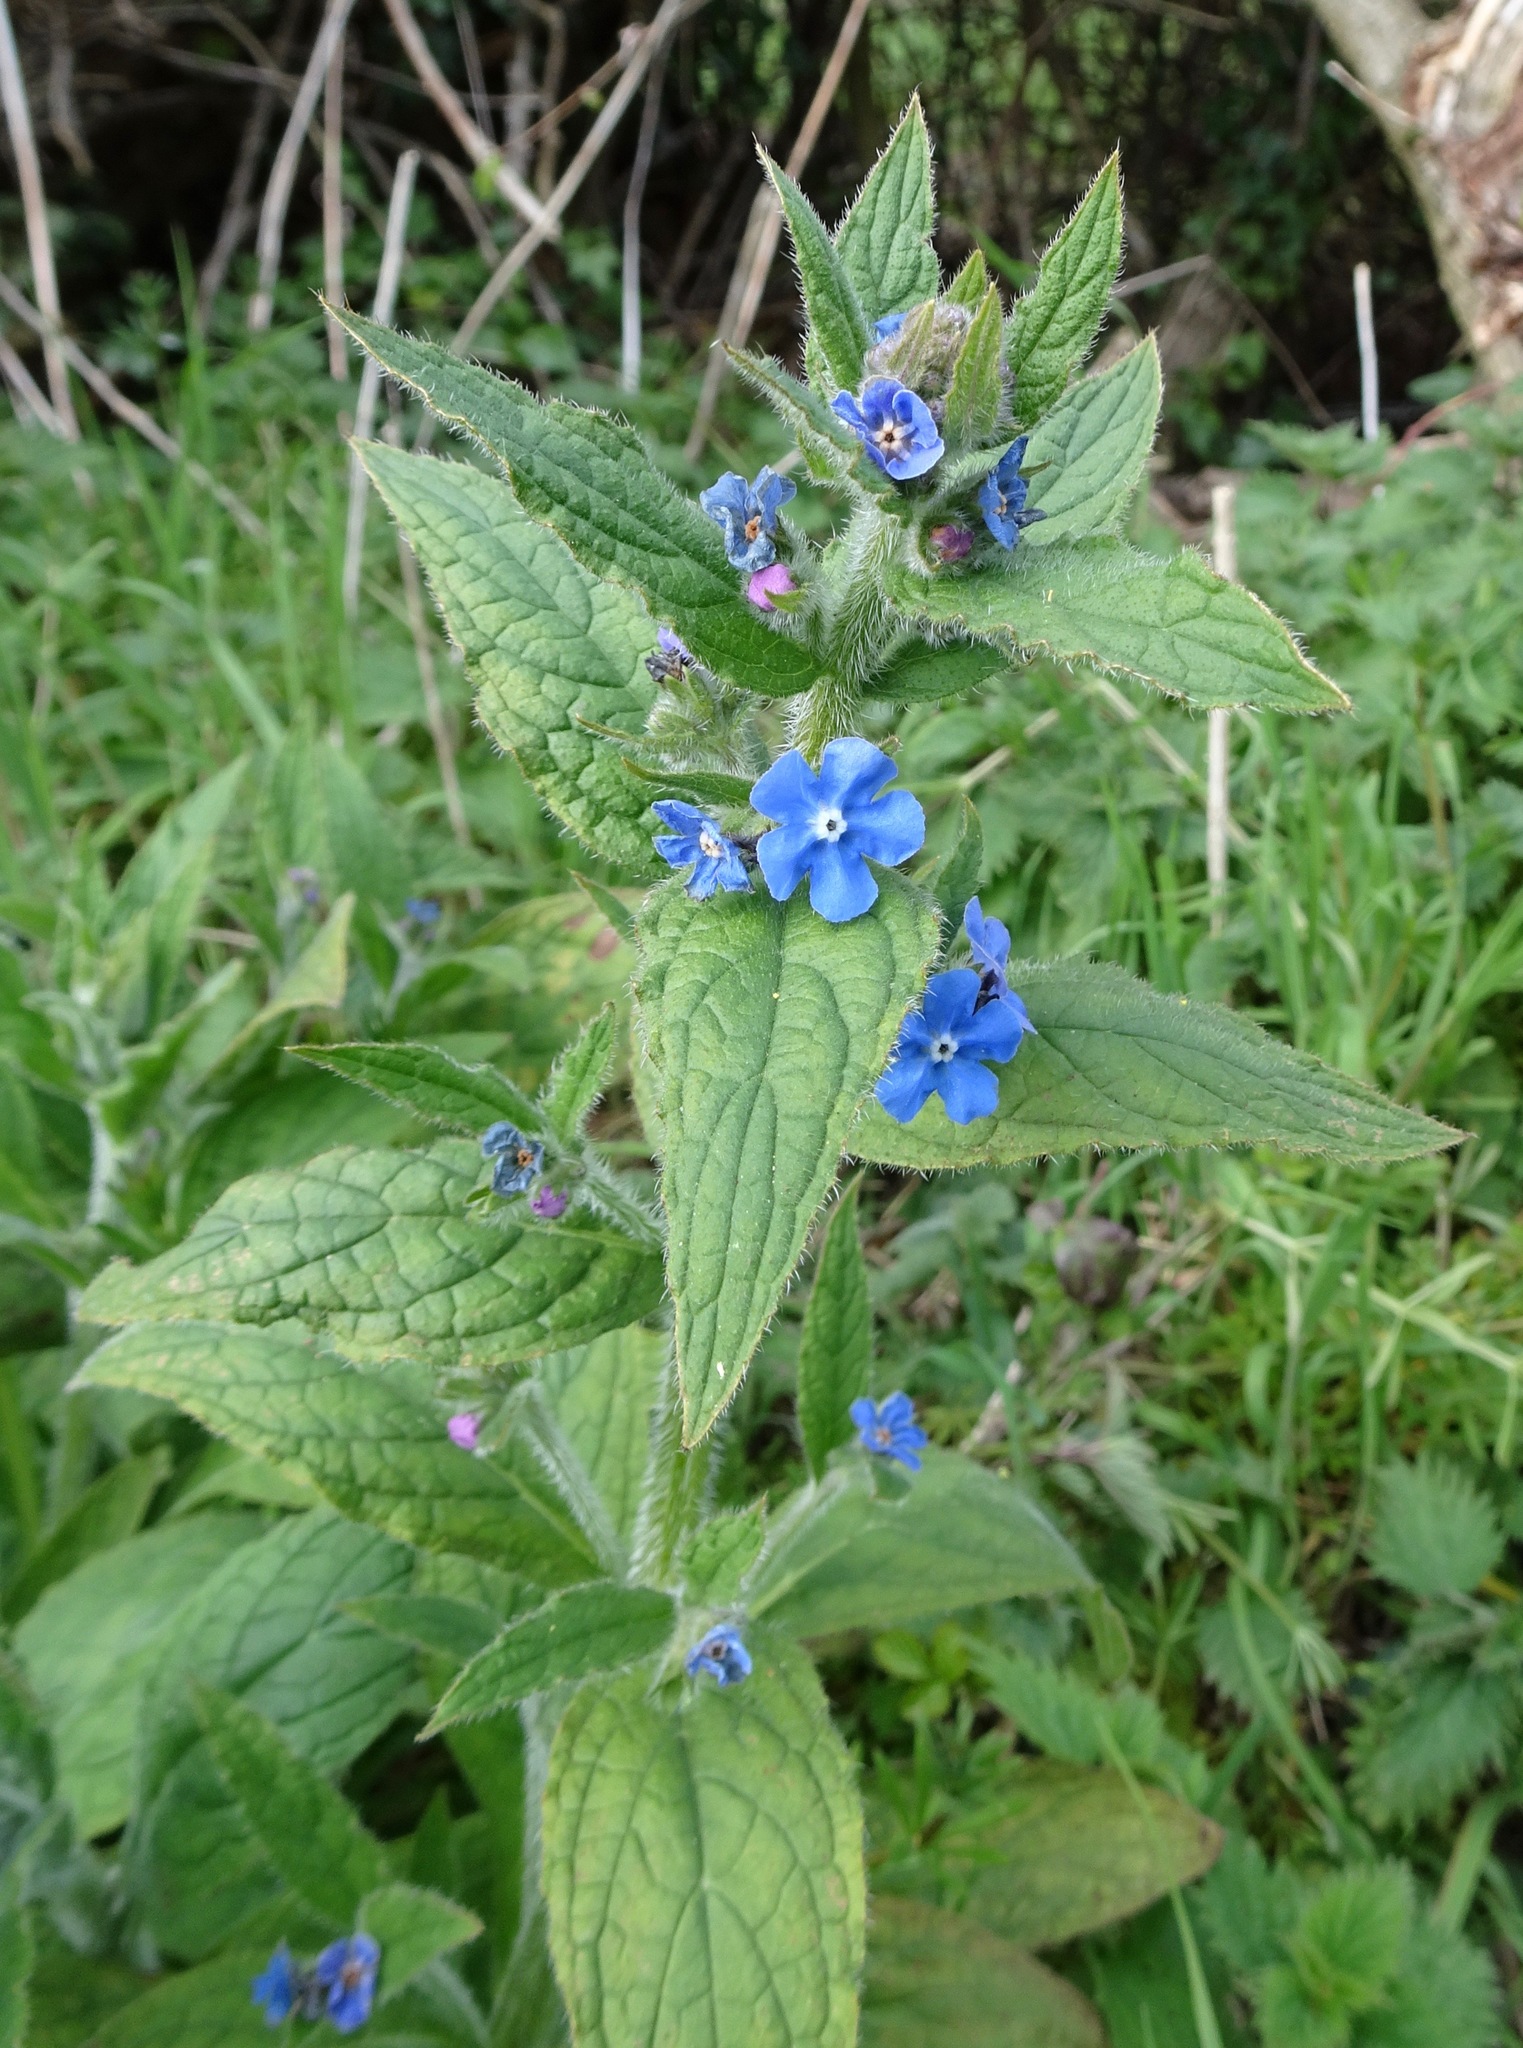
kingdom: Plantae
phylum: Tracheophyta
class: Magnoliopsida
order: Boraginales
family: Boraginaceae
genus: Pentaglottis
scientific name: Pentaglottis sempervirens
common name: Green alkanet
